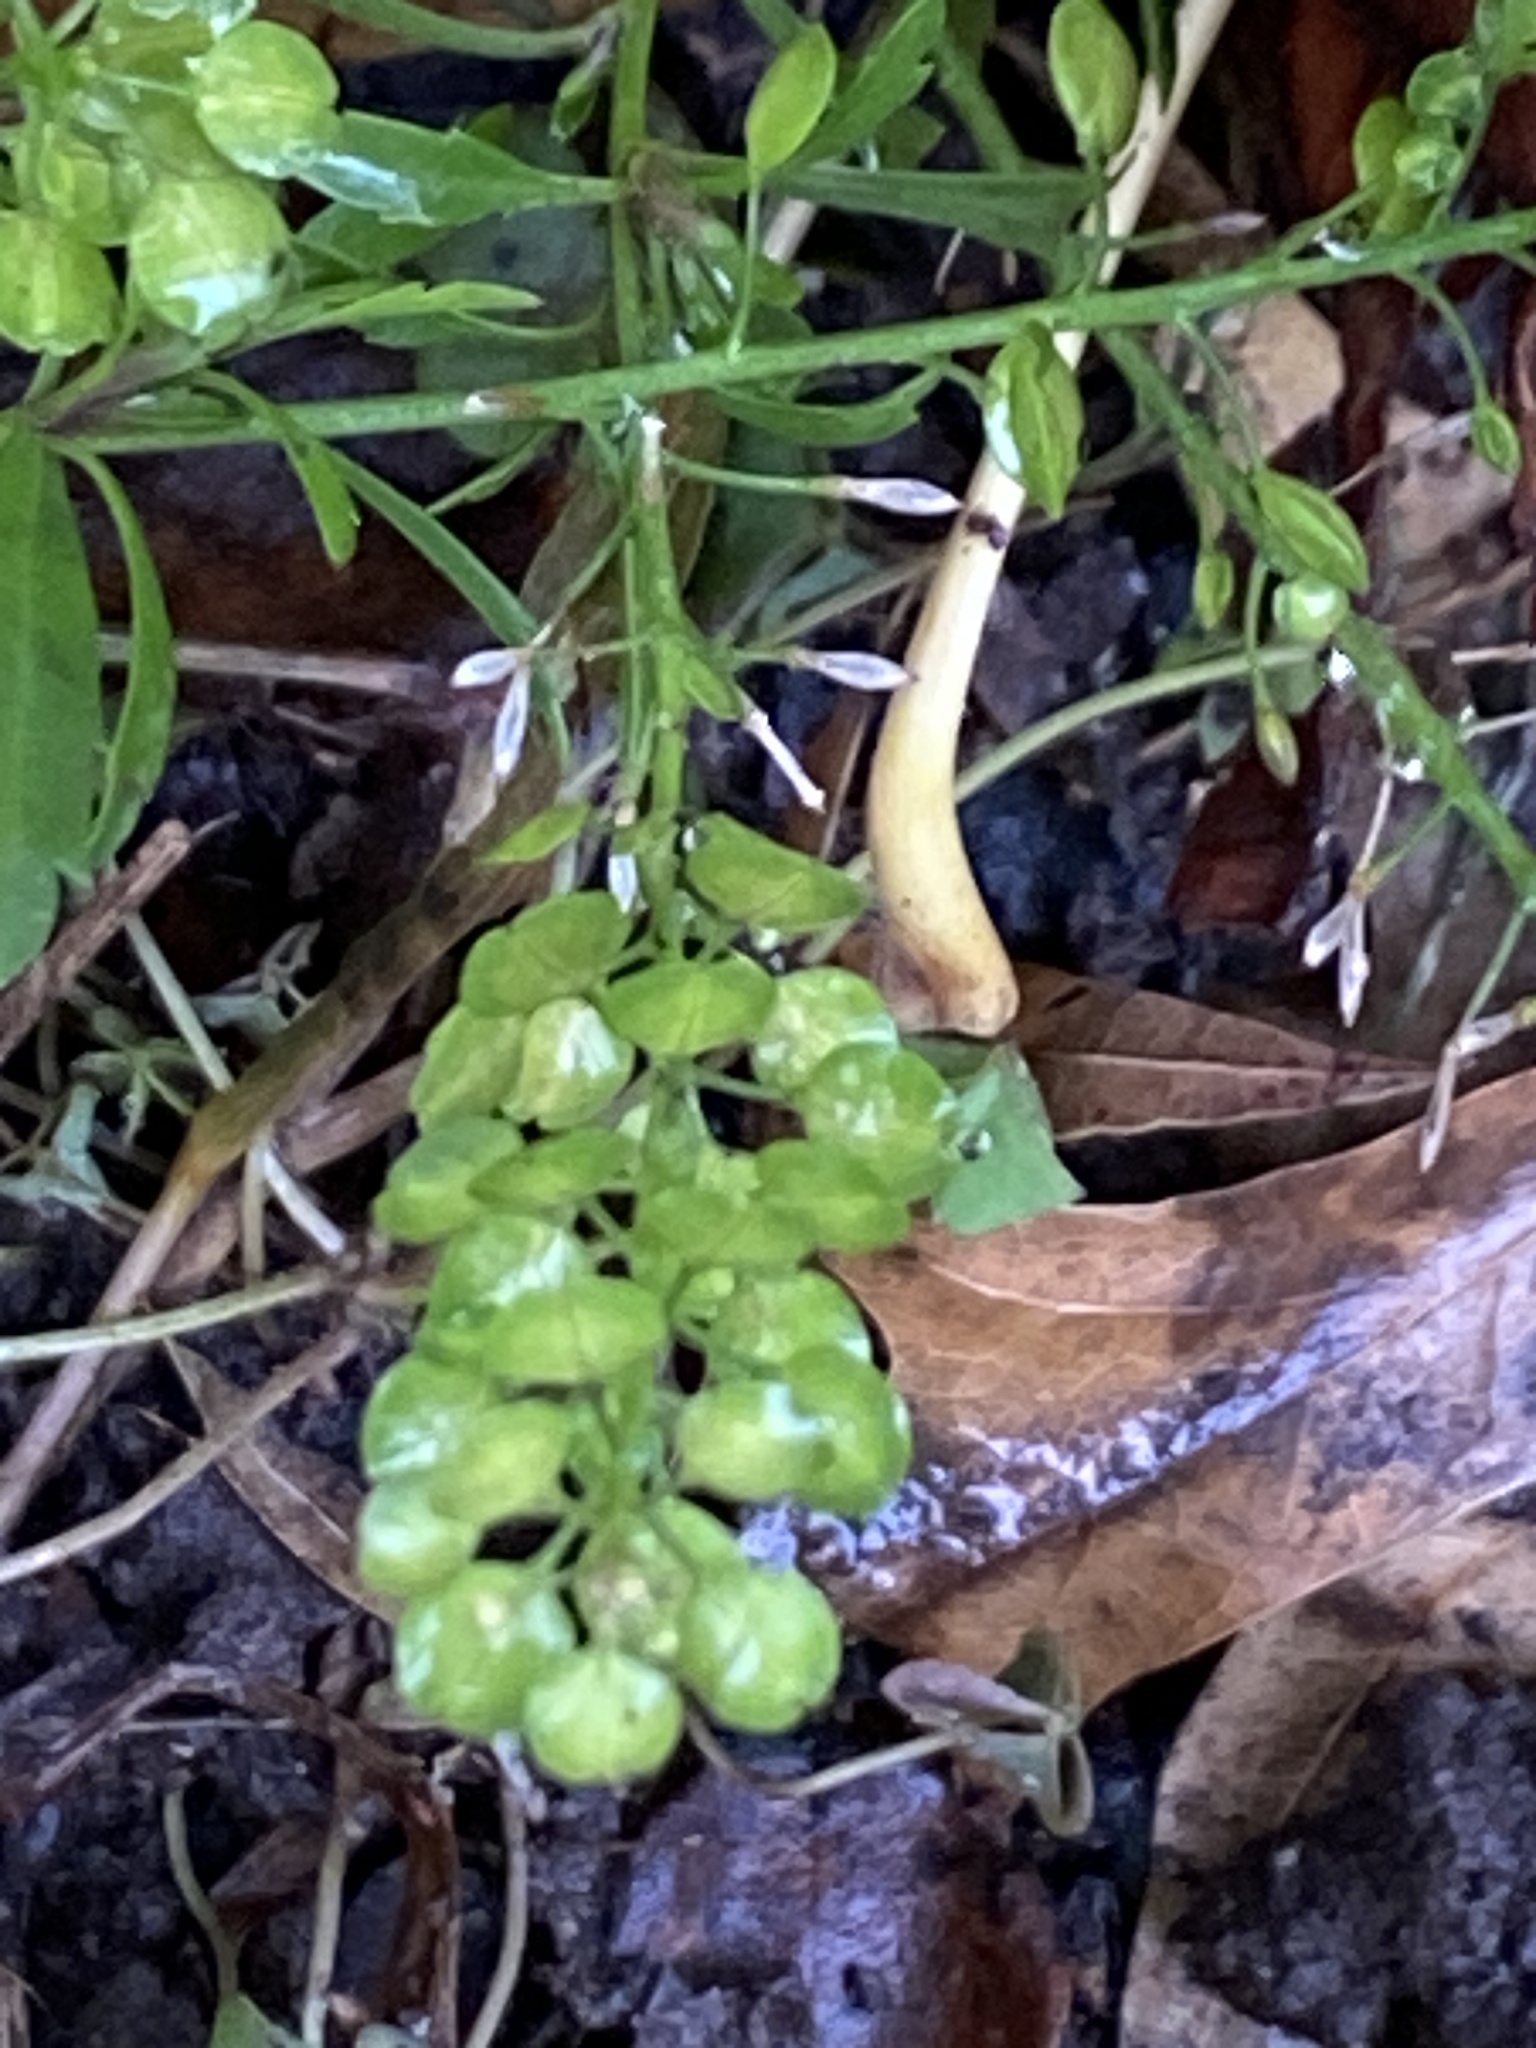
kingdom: Plantae
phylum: Tracheophyta
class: Magnoliopsida
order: Brassicales
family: Brassicaceae
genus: Lepidium
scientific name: Lepidium virginicum
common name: Least pepperwort
